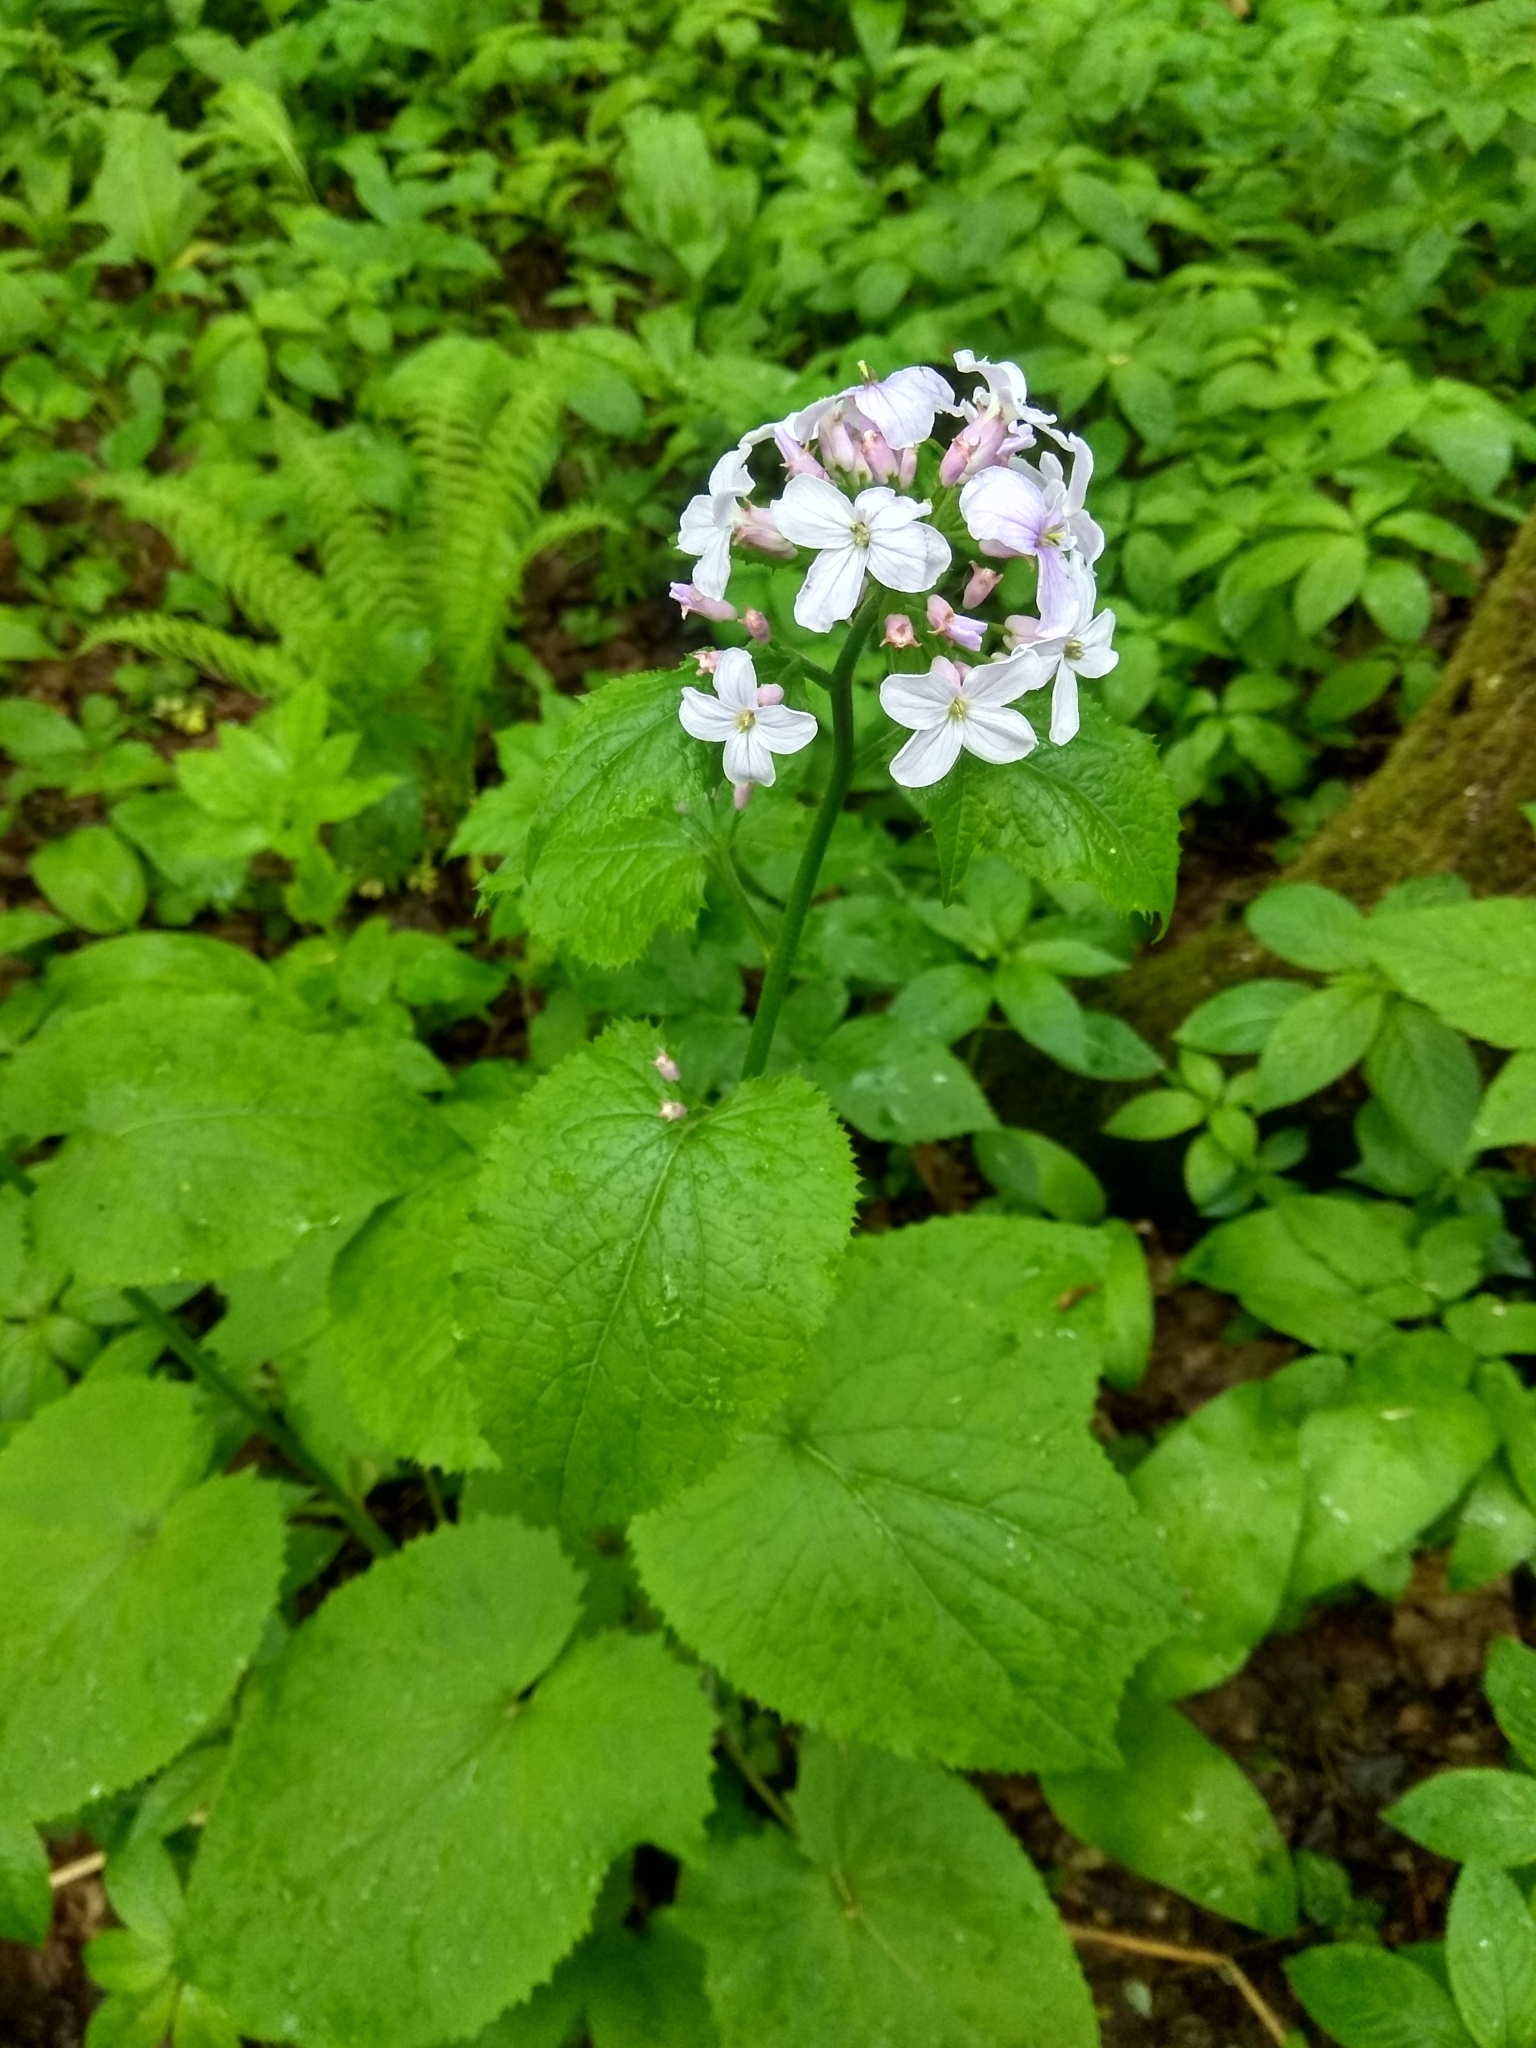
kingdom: Plantae
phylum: Tracheophyta
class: Magnoliopsida
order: Brassicales
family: Brassicaceae
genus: Lunaria
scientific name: Lunaria rediviva
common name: Perennial honesty
